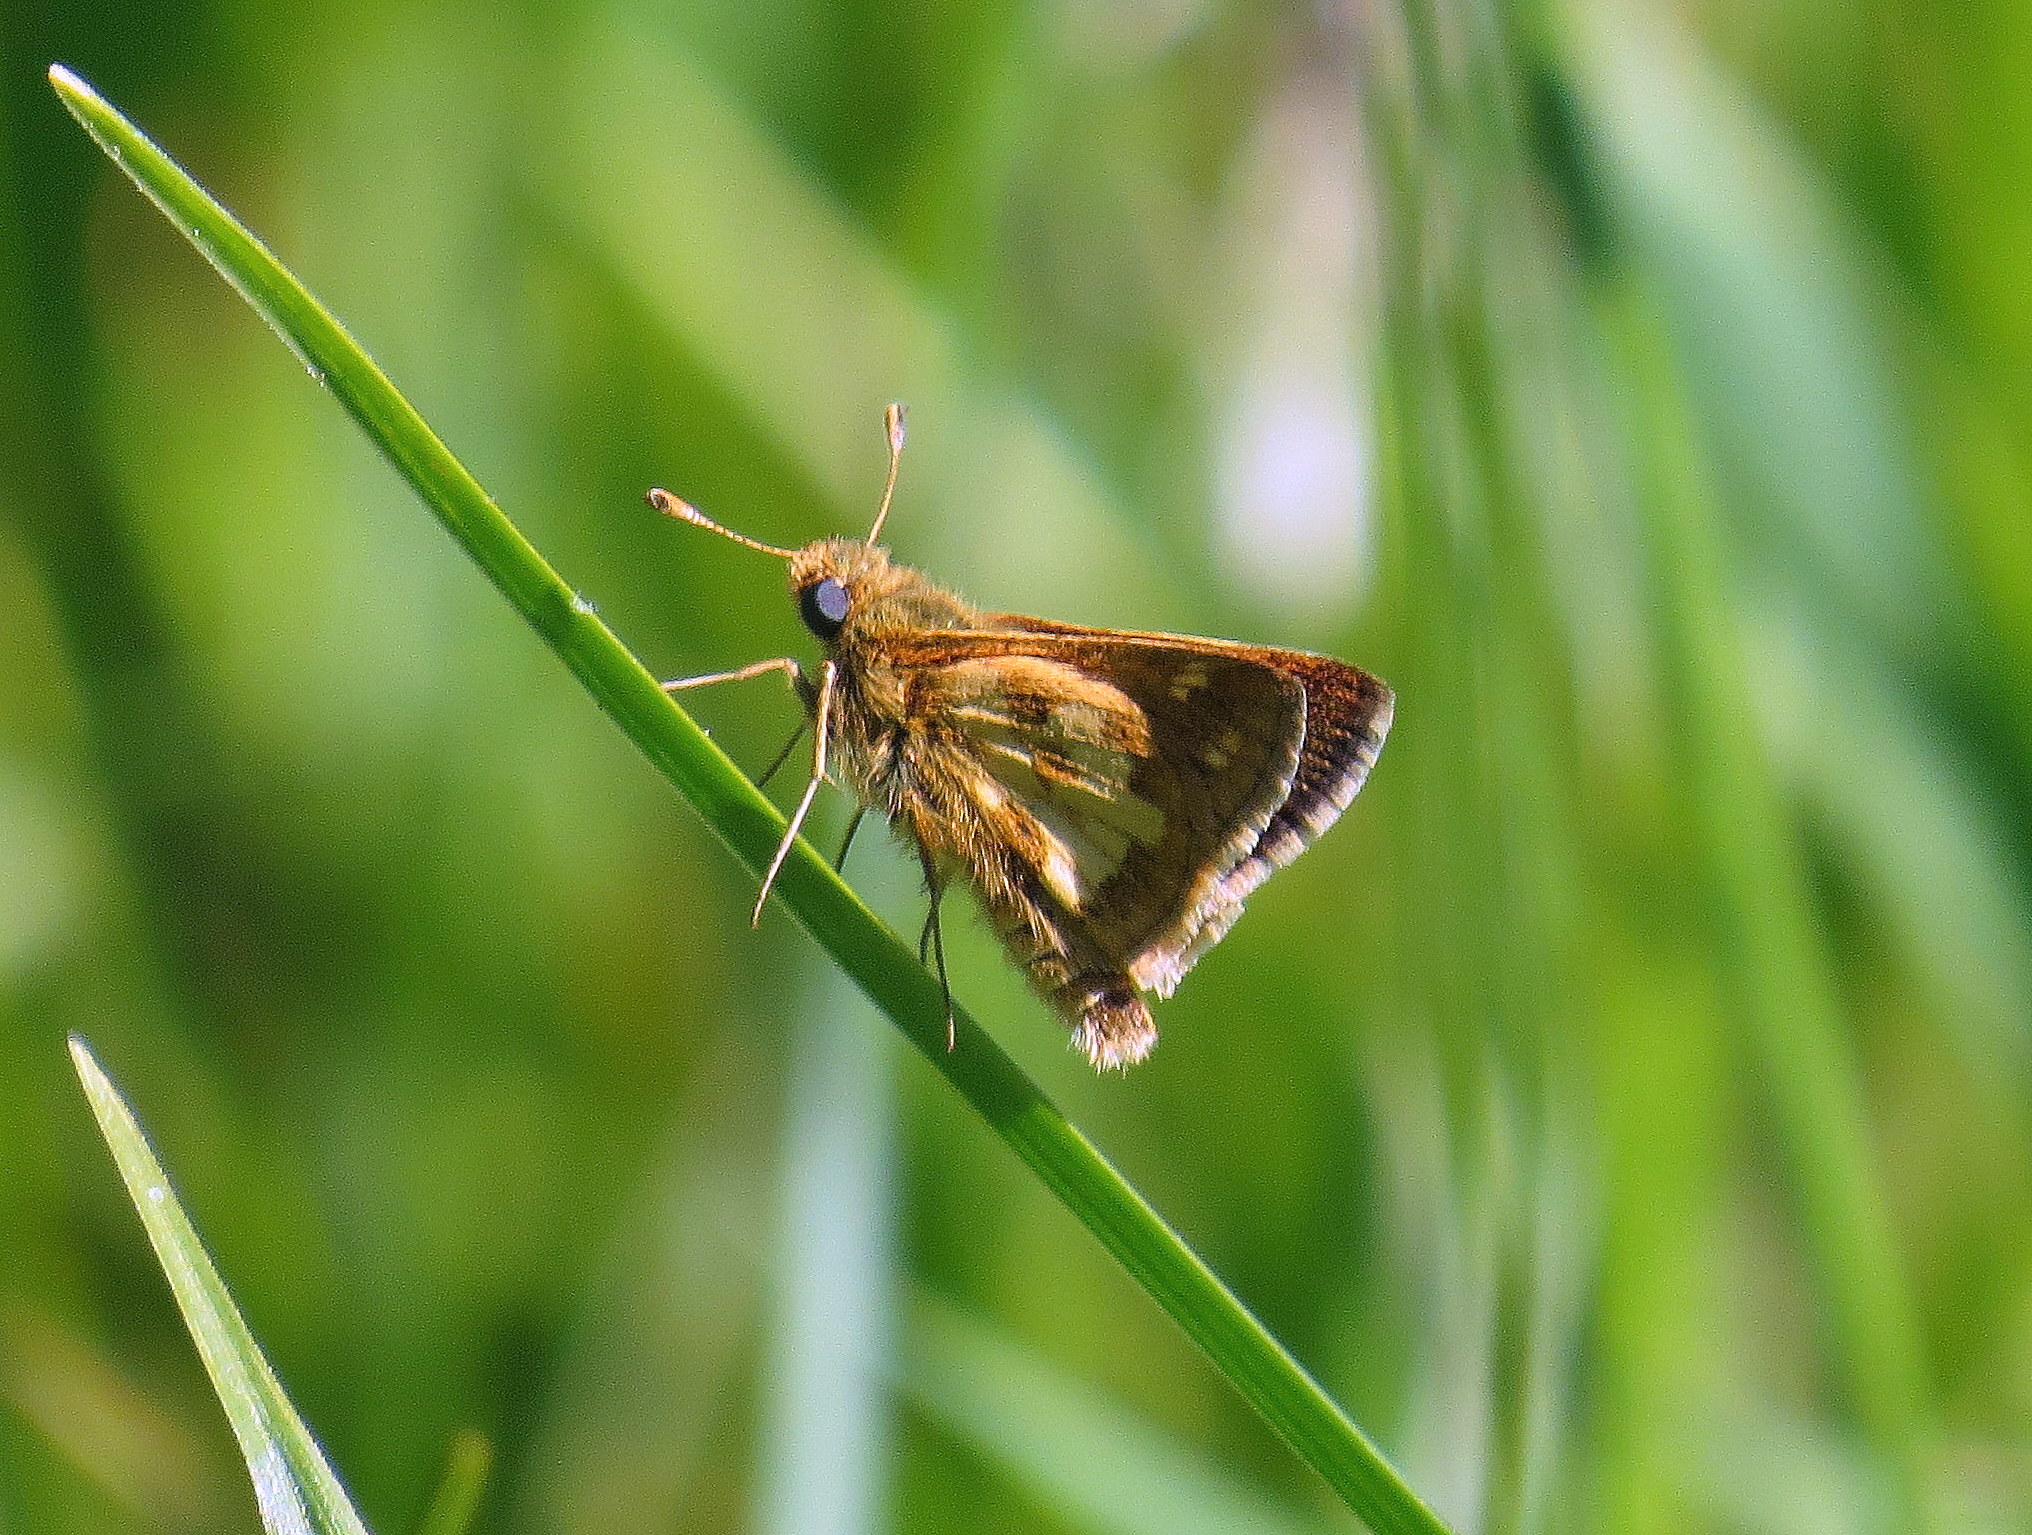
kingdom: Animalia
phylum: Arthropoda
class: Insecta
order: Lepidoptera
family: Hesperiidae
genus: Polites
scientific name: Polites coras
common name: Peck's skipper
